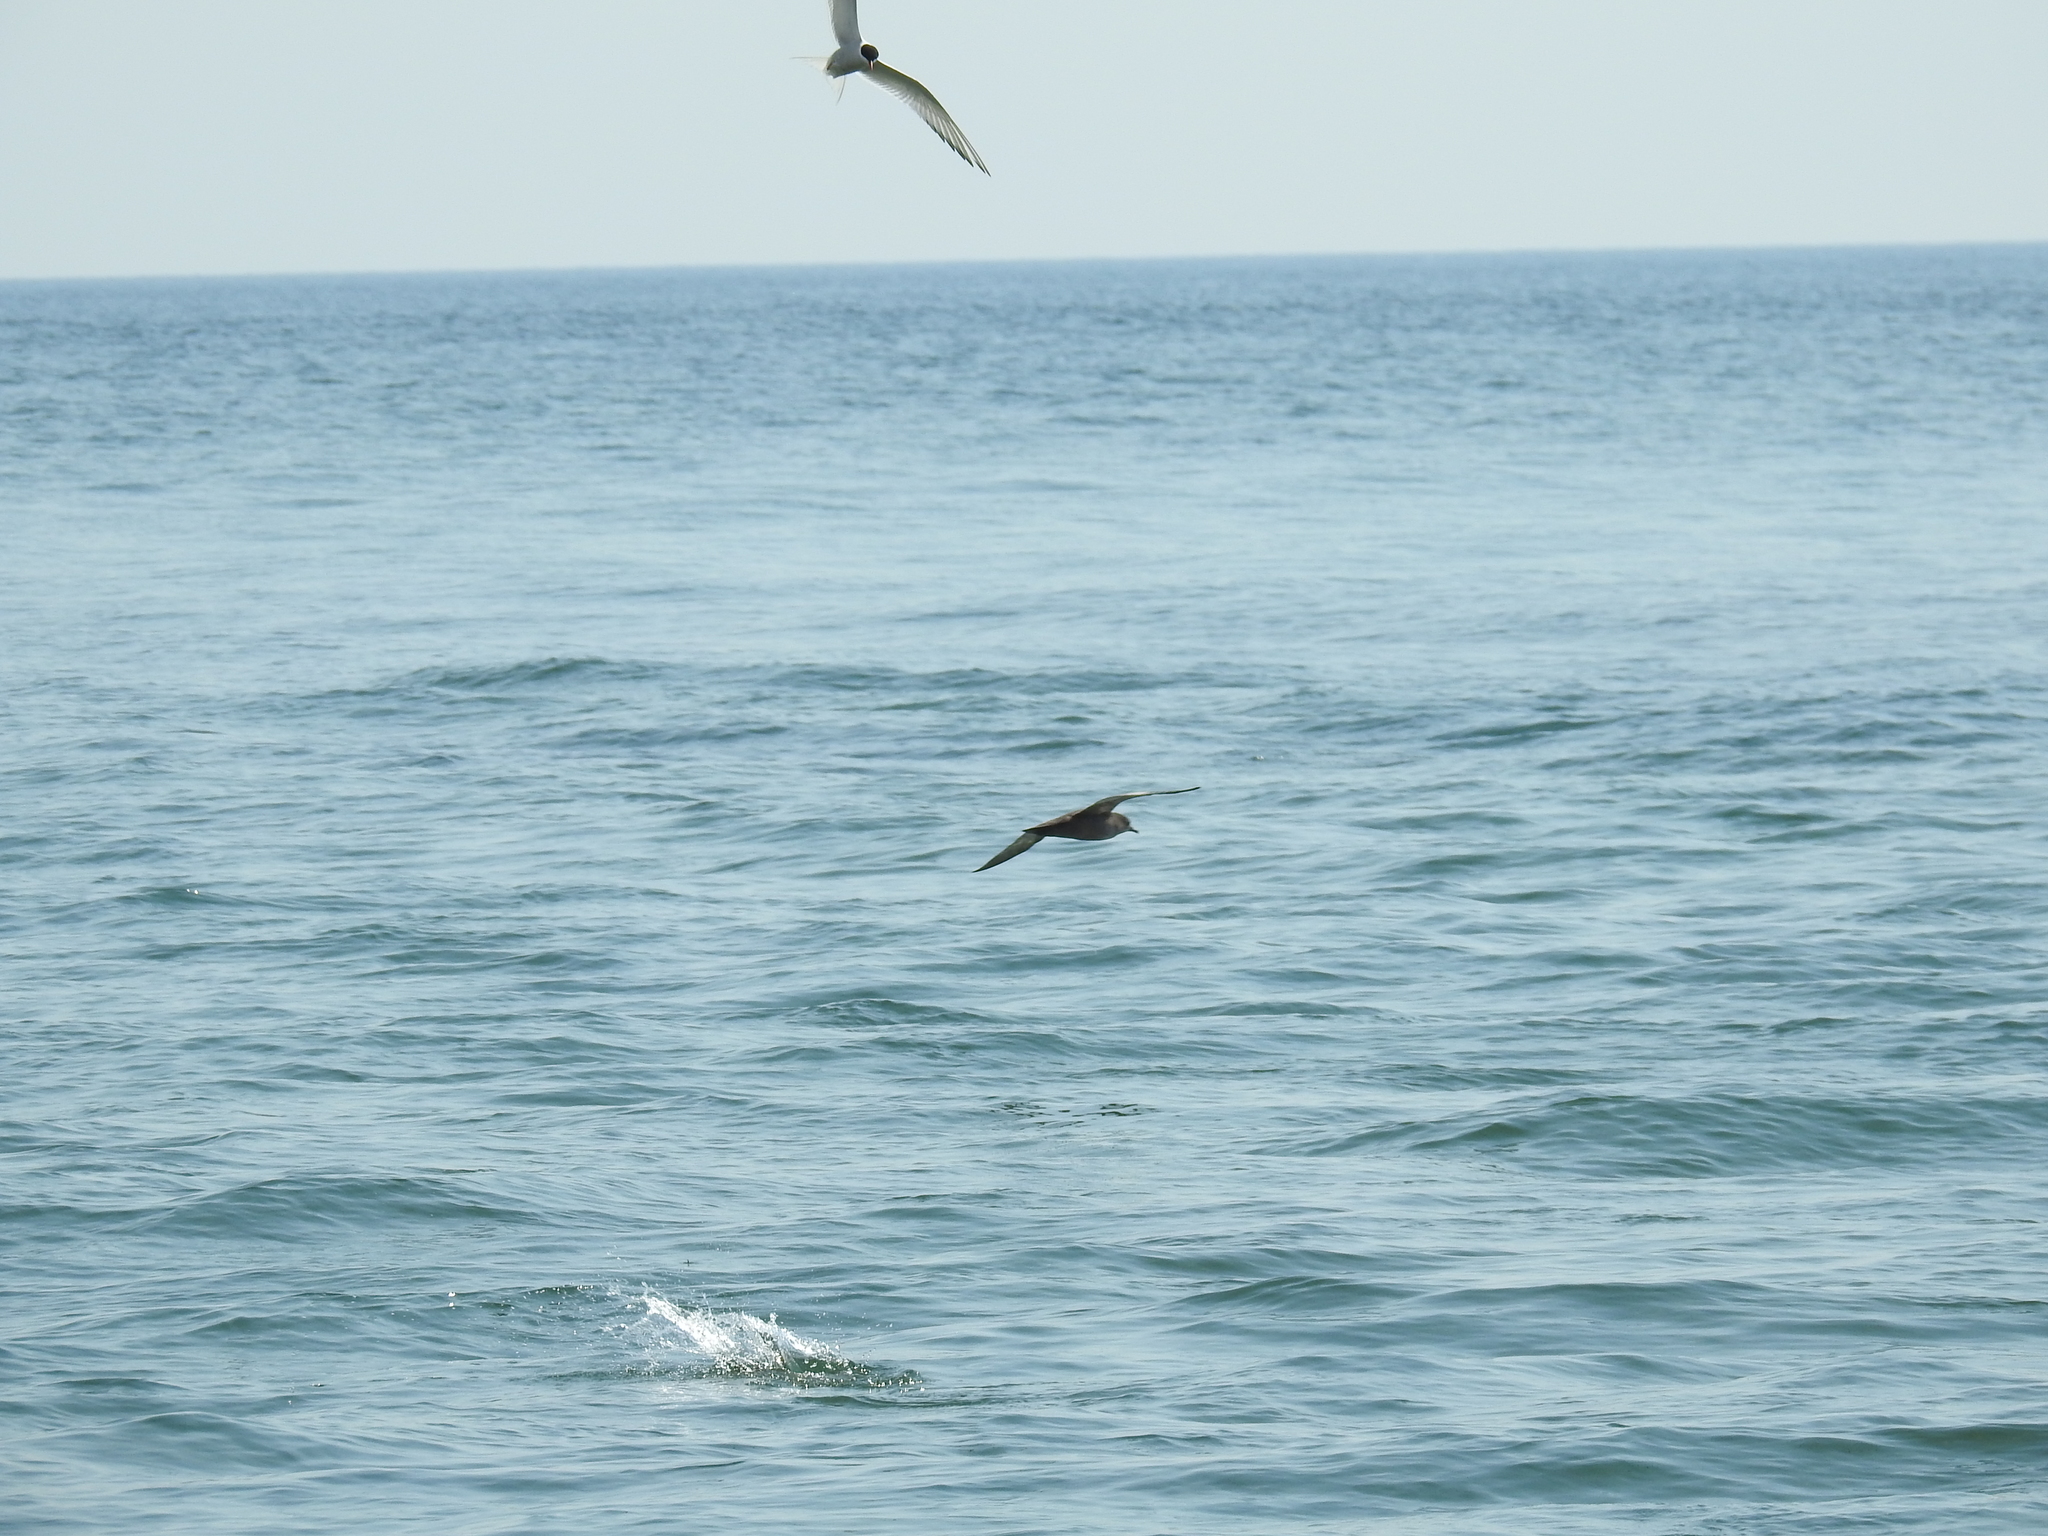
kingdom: Animalia
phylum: Chordata
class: Aves
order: Procellariiformes
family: Procellariidae
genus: Puffinus
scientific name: Puffinus tenuirostris
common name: Short-tailed shearwater
